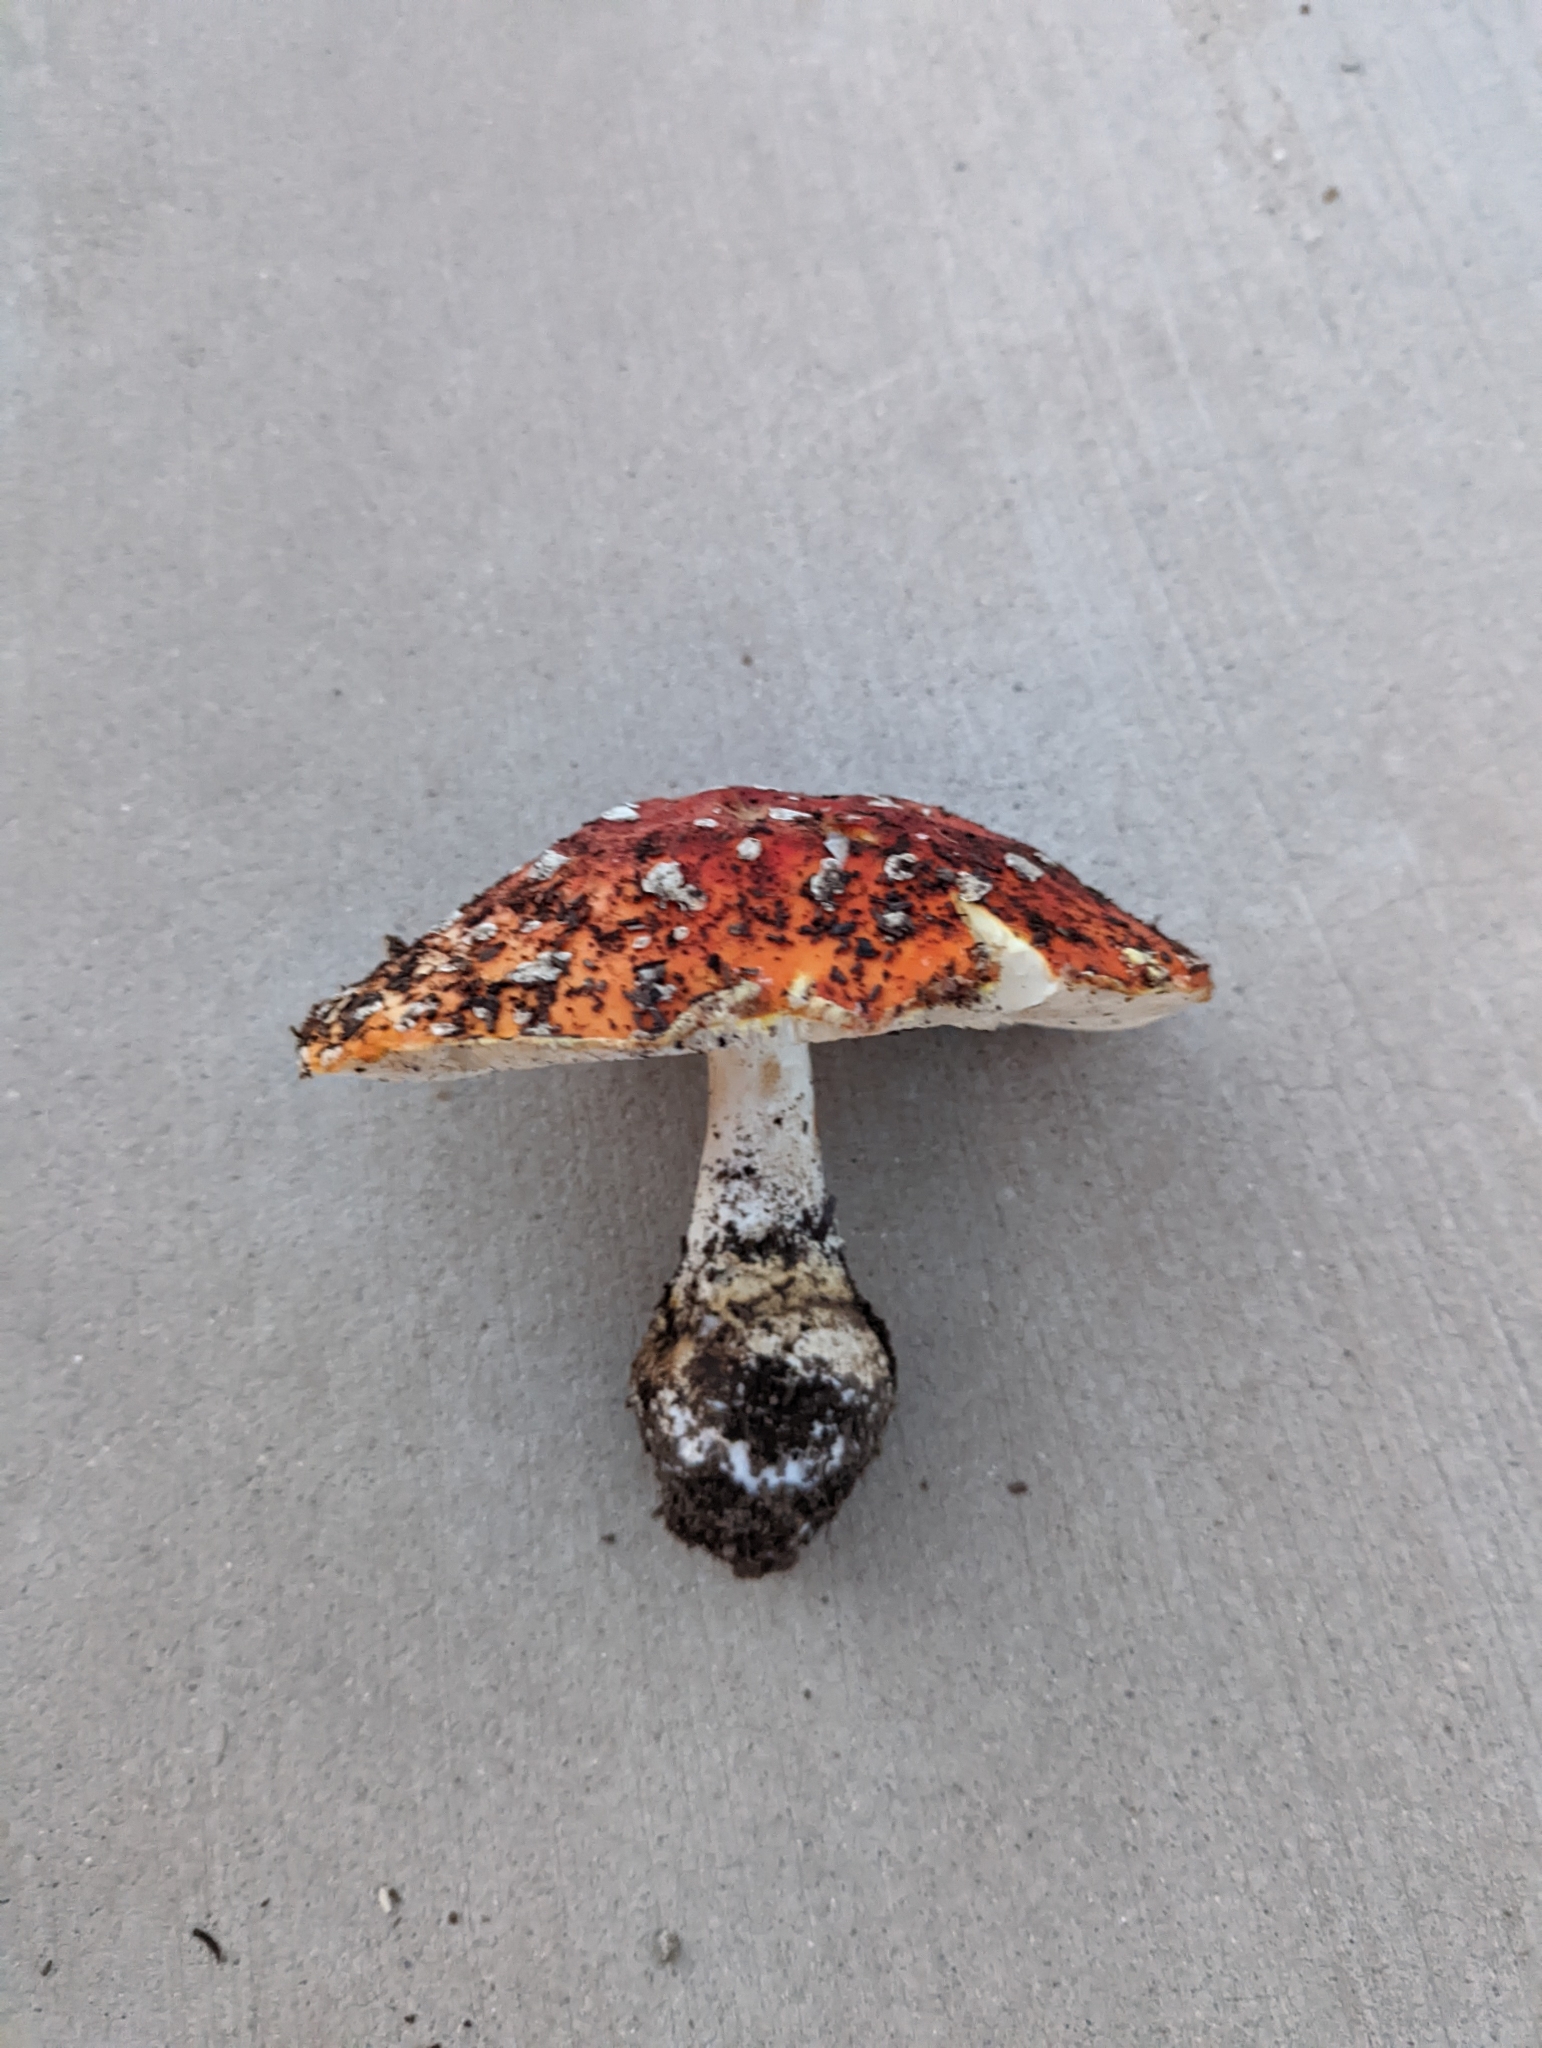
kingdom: Fungi
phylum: Basidiomycota
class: Agaricomycetes
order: Agaricales
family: Amanitaceae
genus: Amanita
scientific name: Amanita muscaria
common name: Fly agaric
